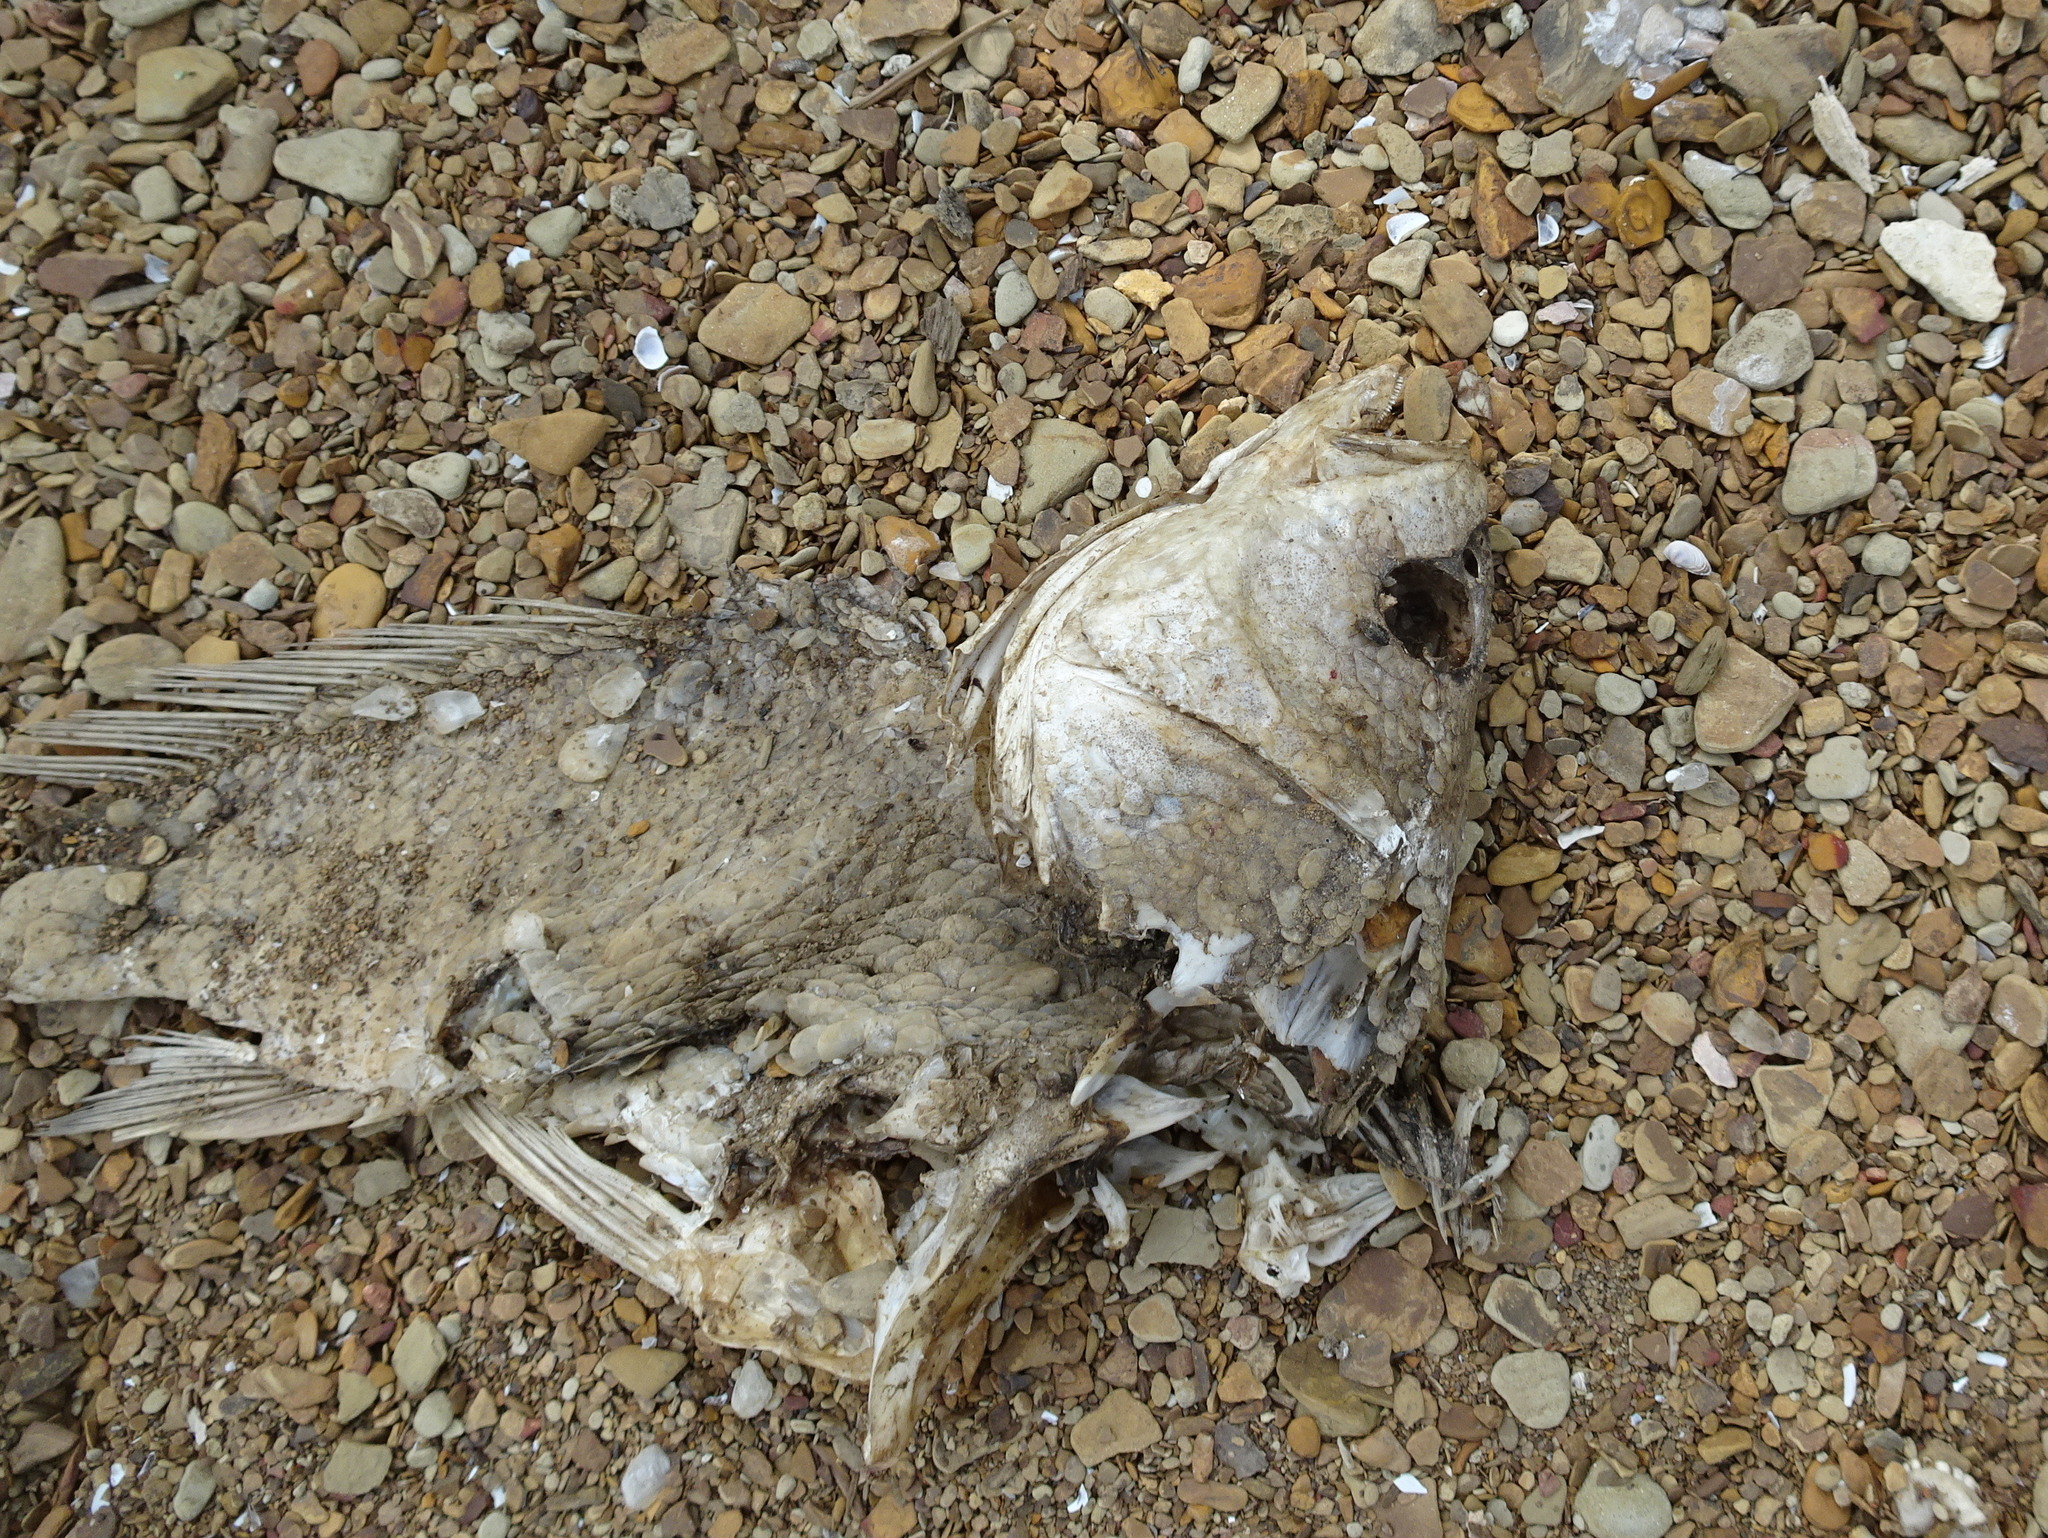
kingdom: Animalia
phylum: Chordata
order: Perciformes
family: Sciaenidae
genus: Aplodinotus
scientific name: Aplodinotus grunniens
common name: Freshwater drum
